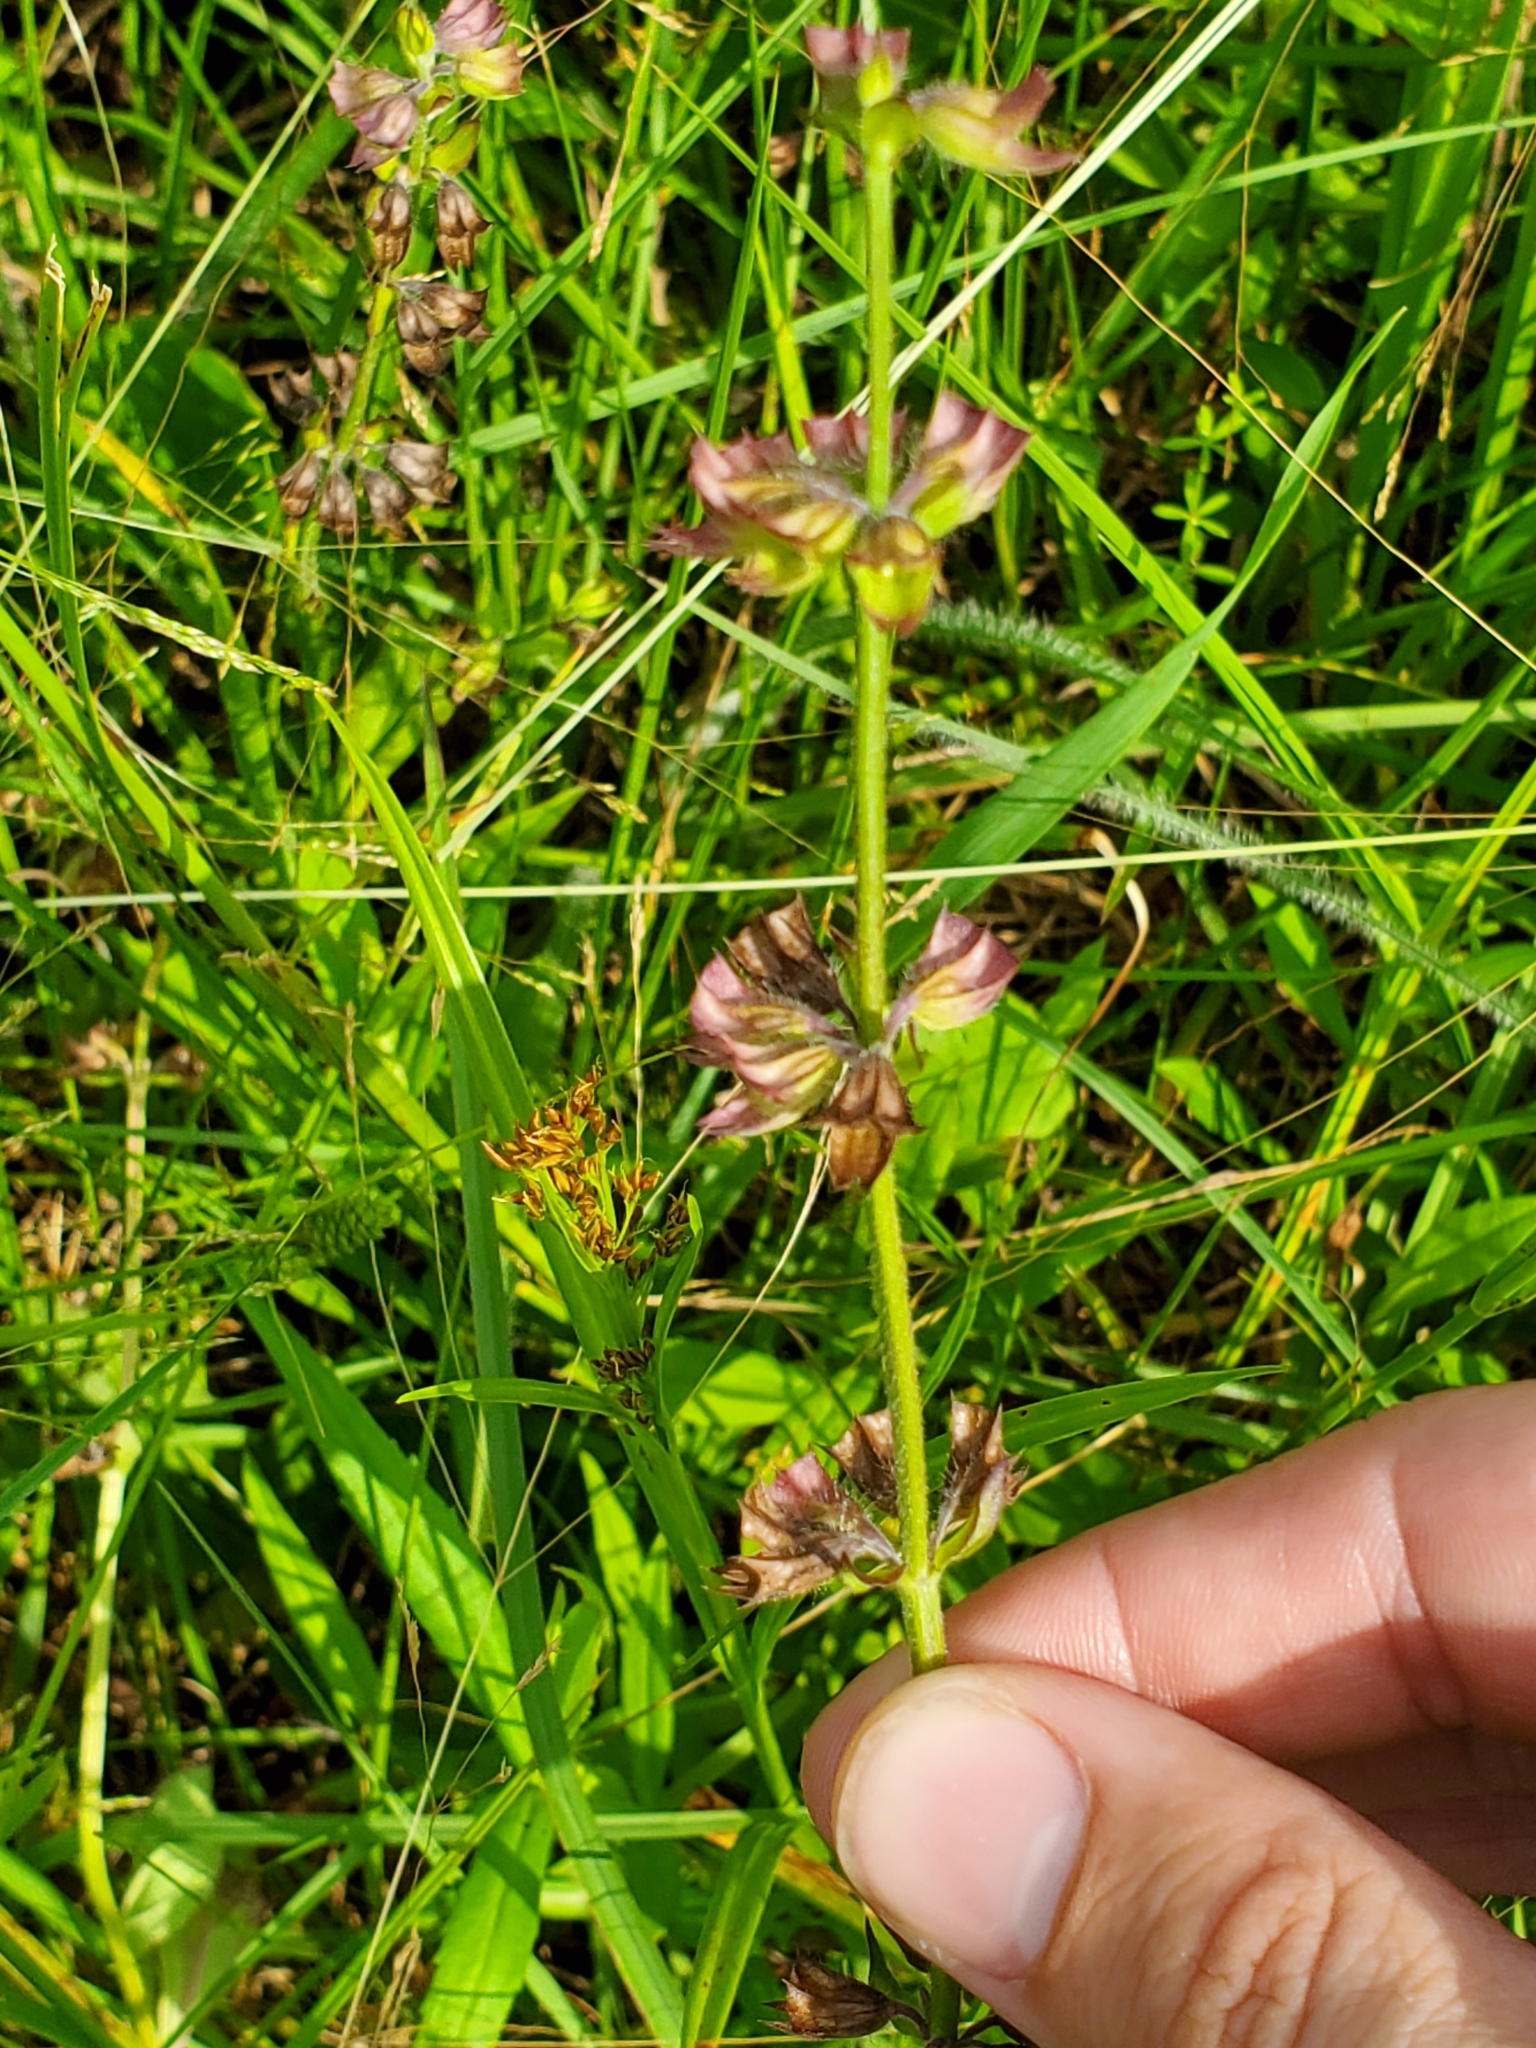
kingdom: Plantae
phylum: Tracheophyta
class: Magnoliopsida
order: Lamiales
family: Lamiaceae
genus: Salvia
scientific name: Salvia lyrata
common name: Cancerweed
